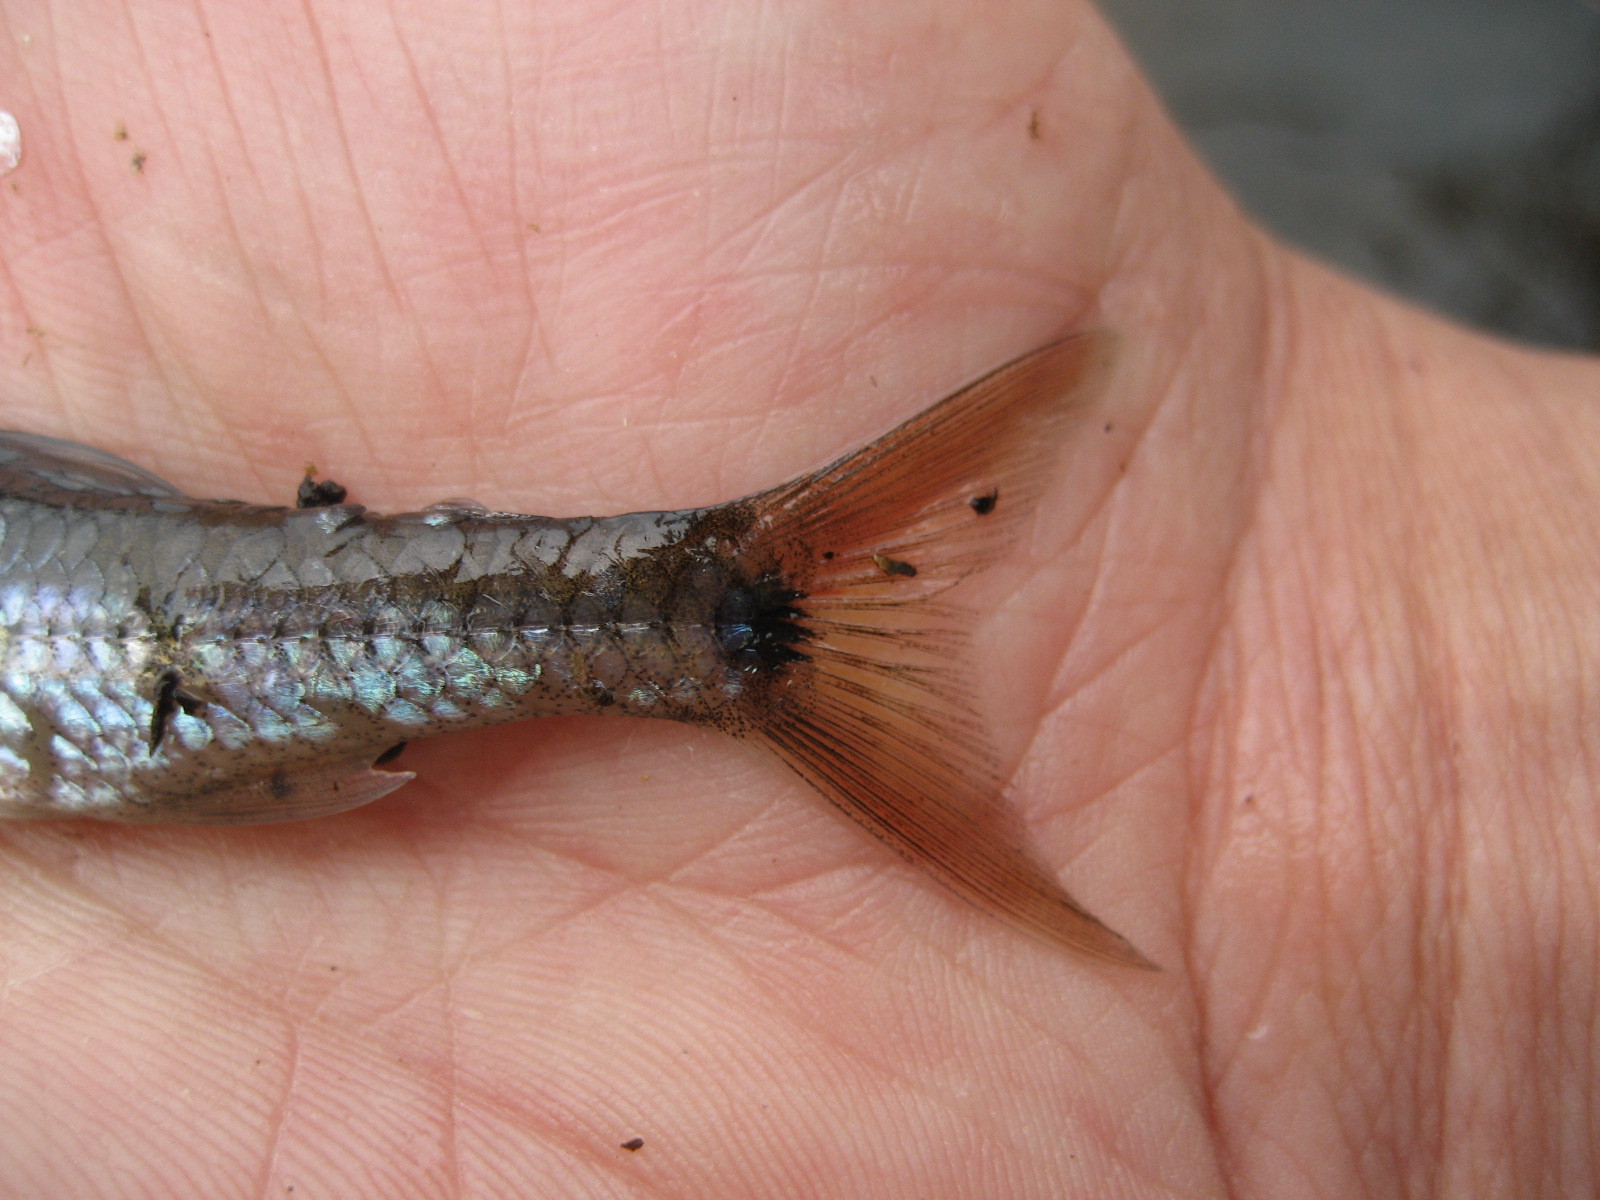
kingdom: Animalia
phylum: Chordata
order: Cypriniformes
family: Cyprinidae
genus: Notropis
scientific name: Notropis
